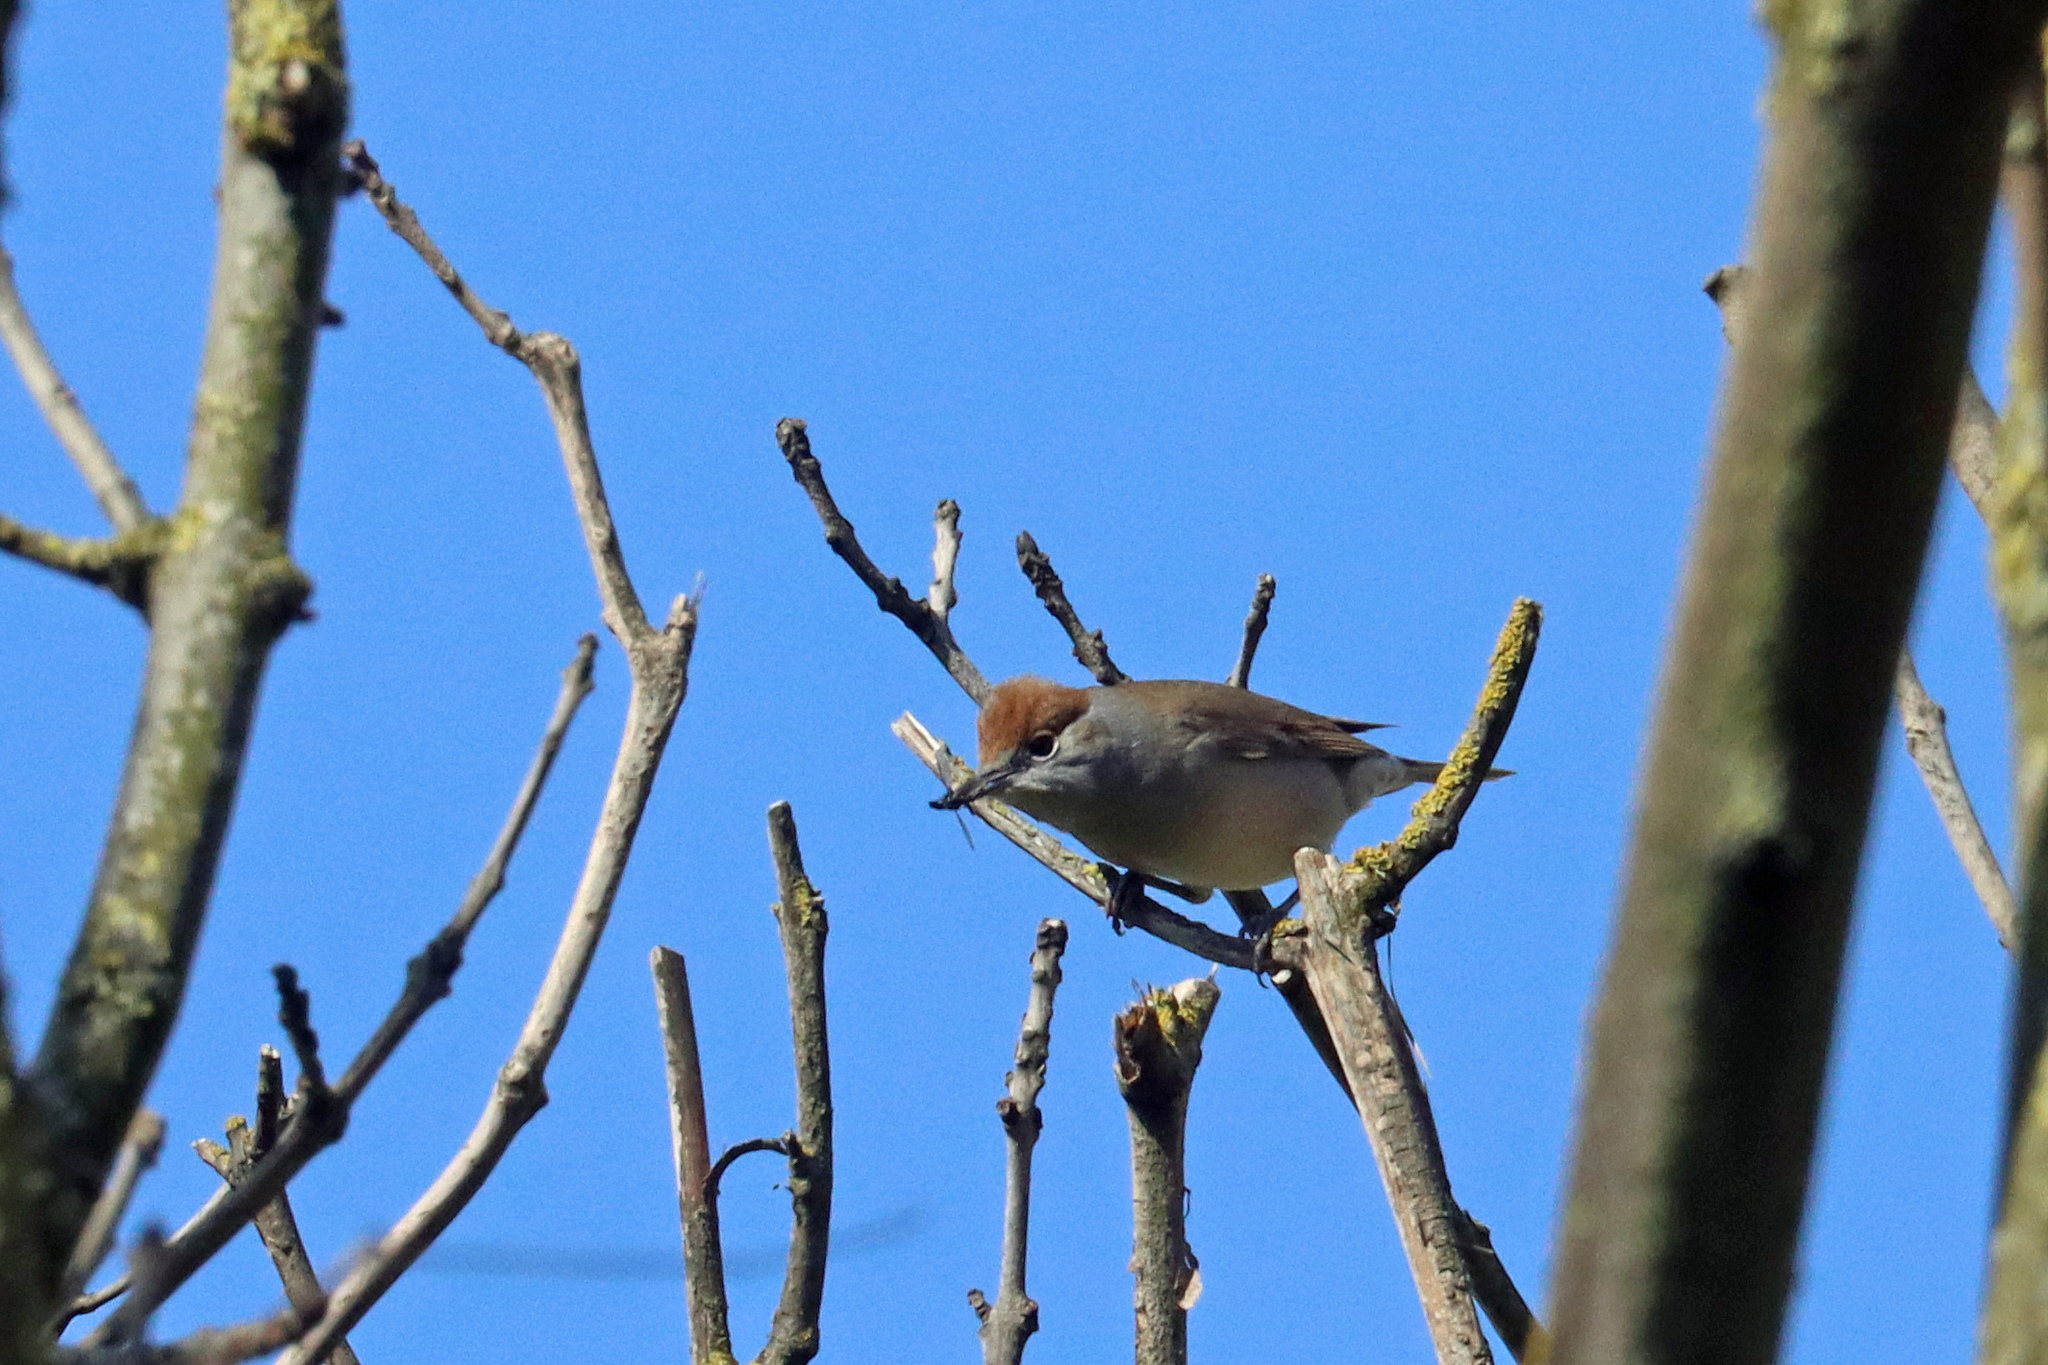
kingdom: Animalia
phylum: Chordata
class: Aves
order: Passeriformes
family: Sylviidae
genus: Sylvia
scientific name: Sylvia atricapilla
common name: Eurasian blackcap
